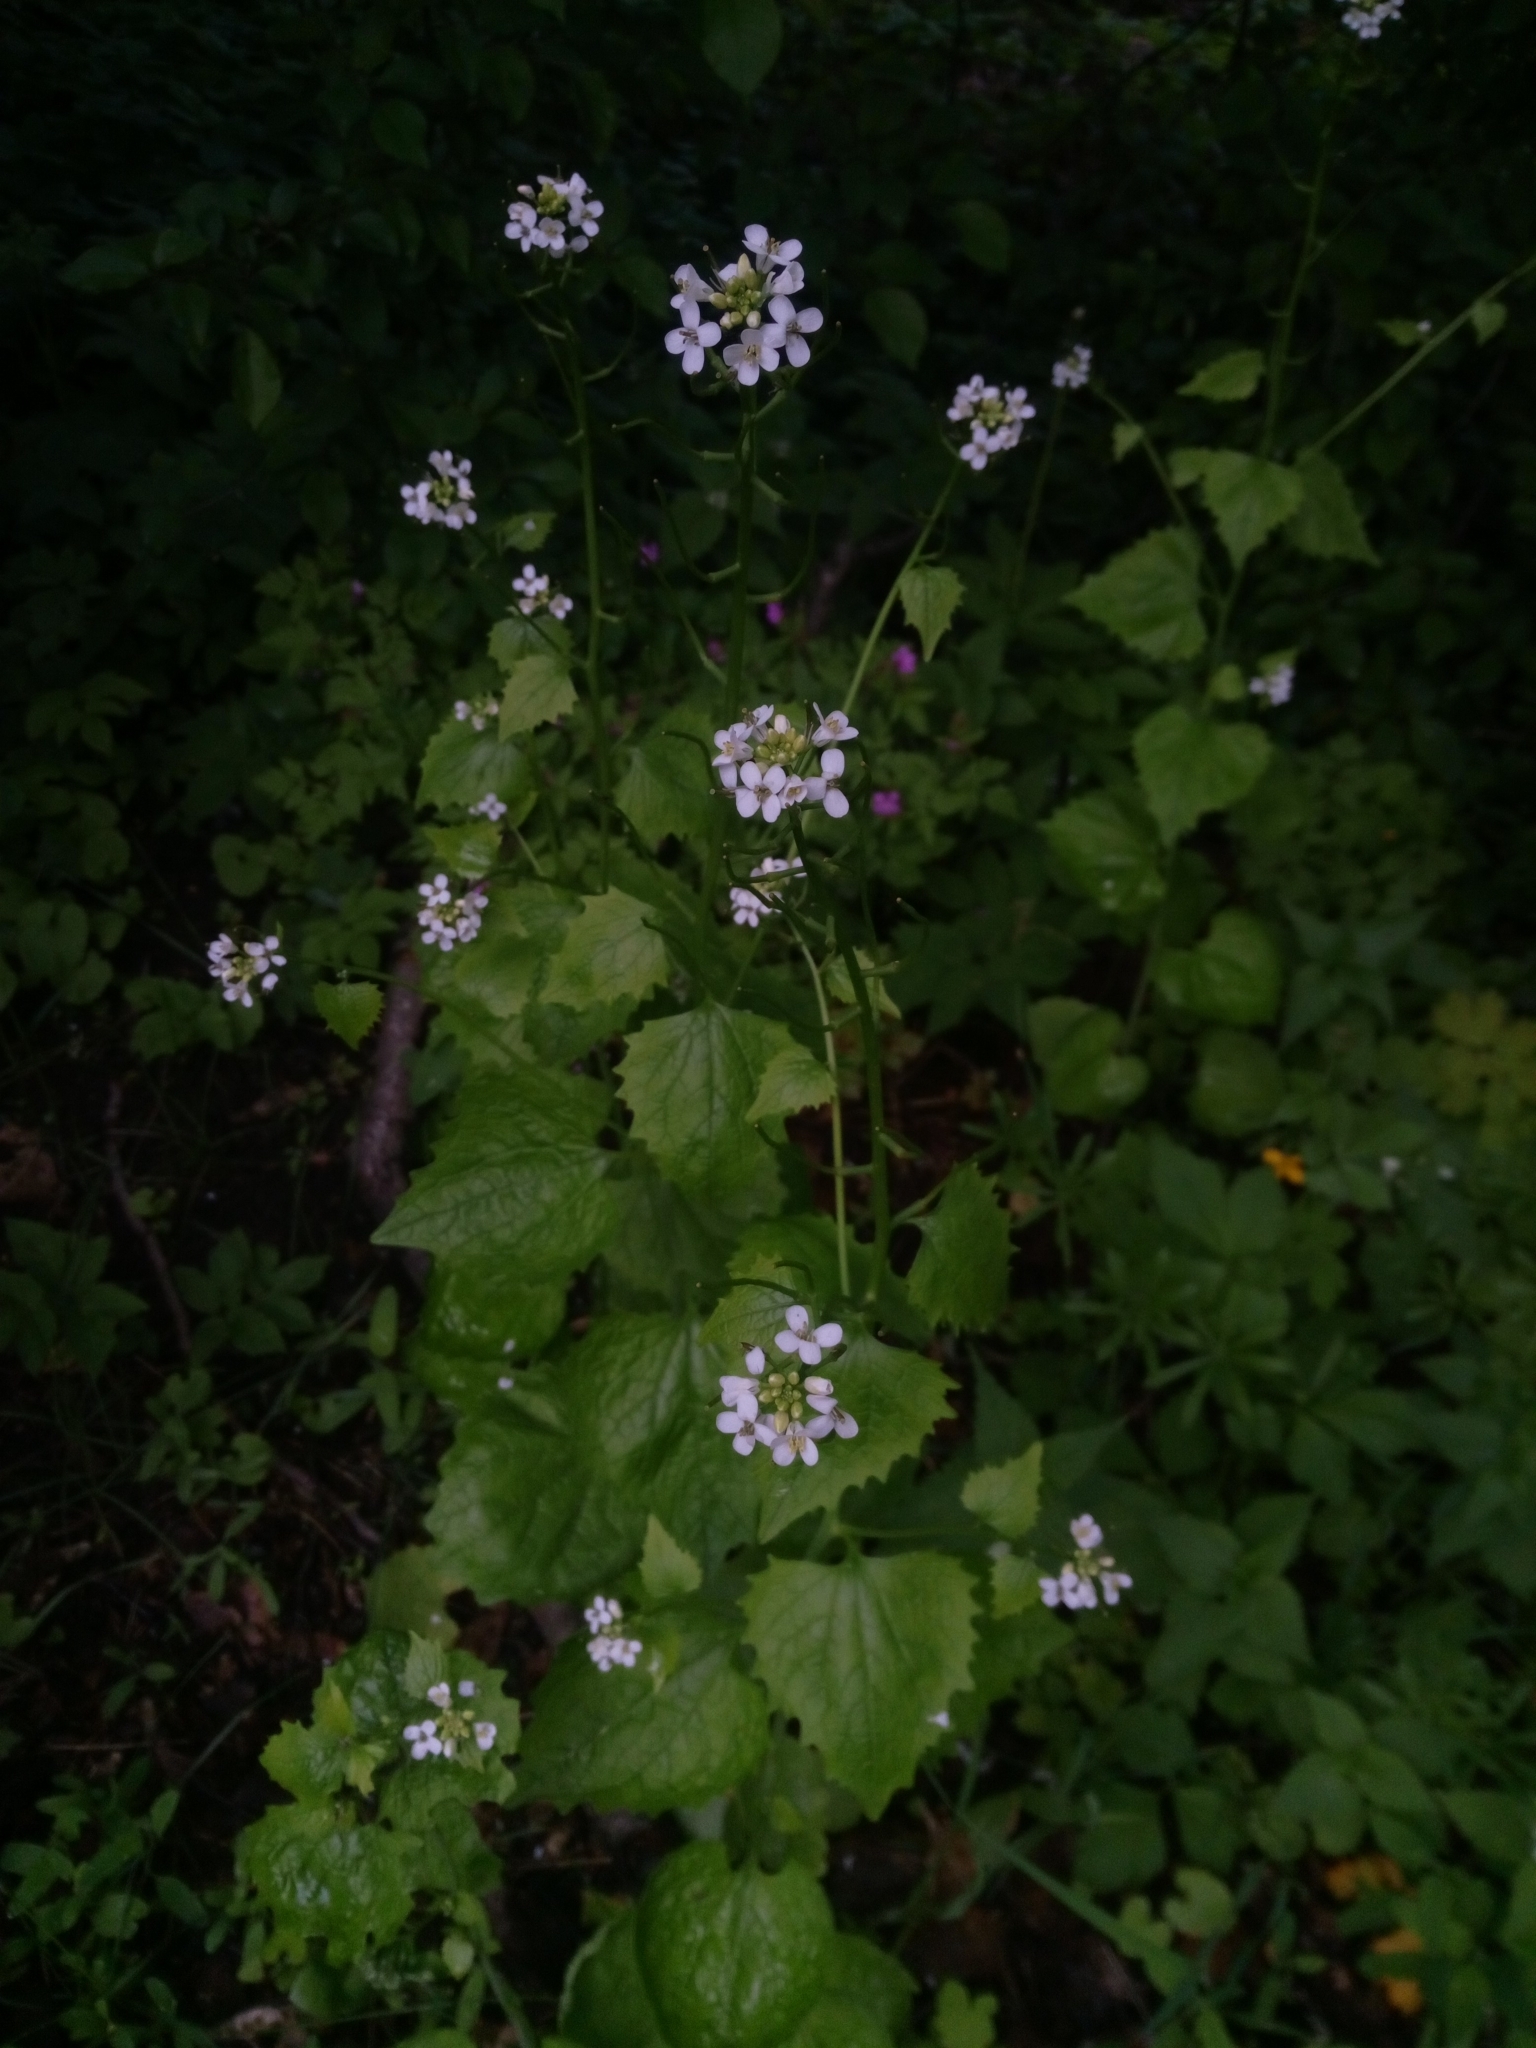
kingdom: Plantae
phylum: Tracheophyta
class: Magnoliopsida
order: Brassicales
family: Brassicaceae
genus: Alliaria
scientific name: Alliaria petiolata
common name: Garlic mustard
